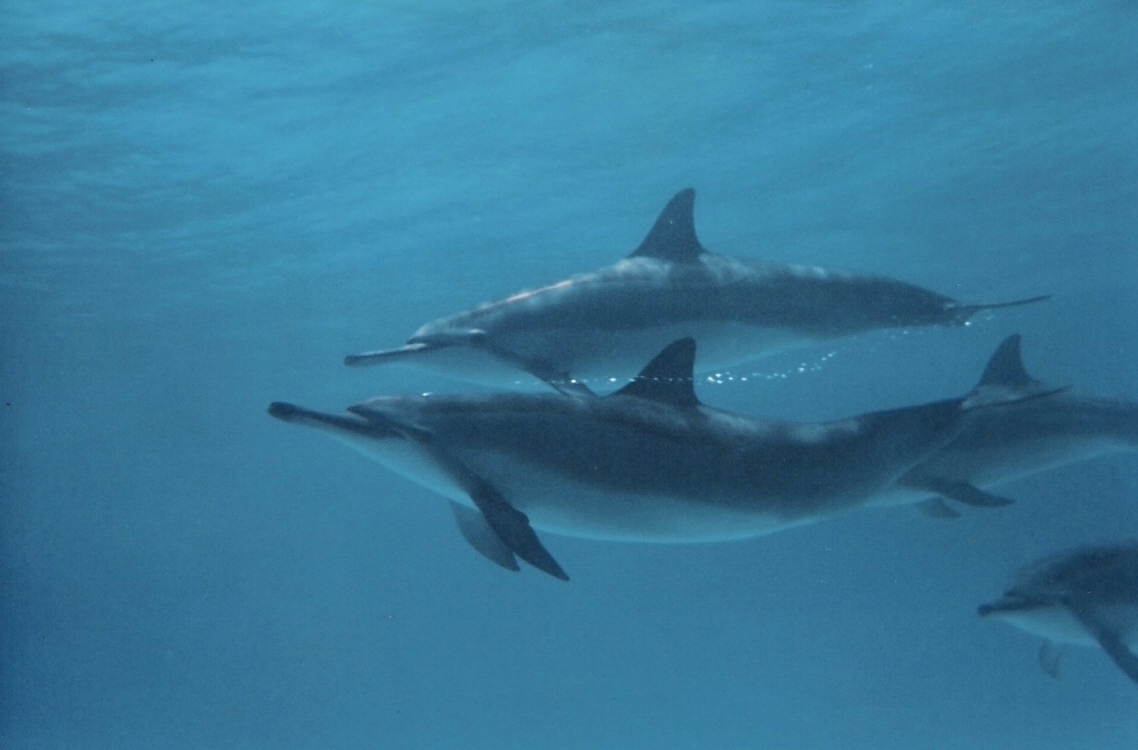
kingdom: Animalia
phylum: Chordata
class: Mammalia
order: Cetacea
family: Delphinidae
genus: Stenella
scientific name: Stenella longirostris
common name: Spinner dolphin
